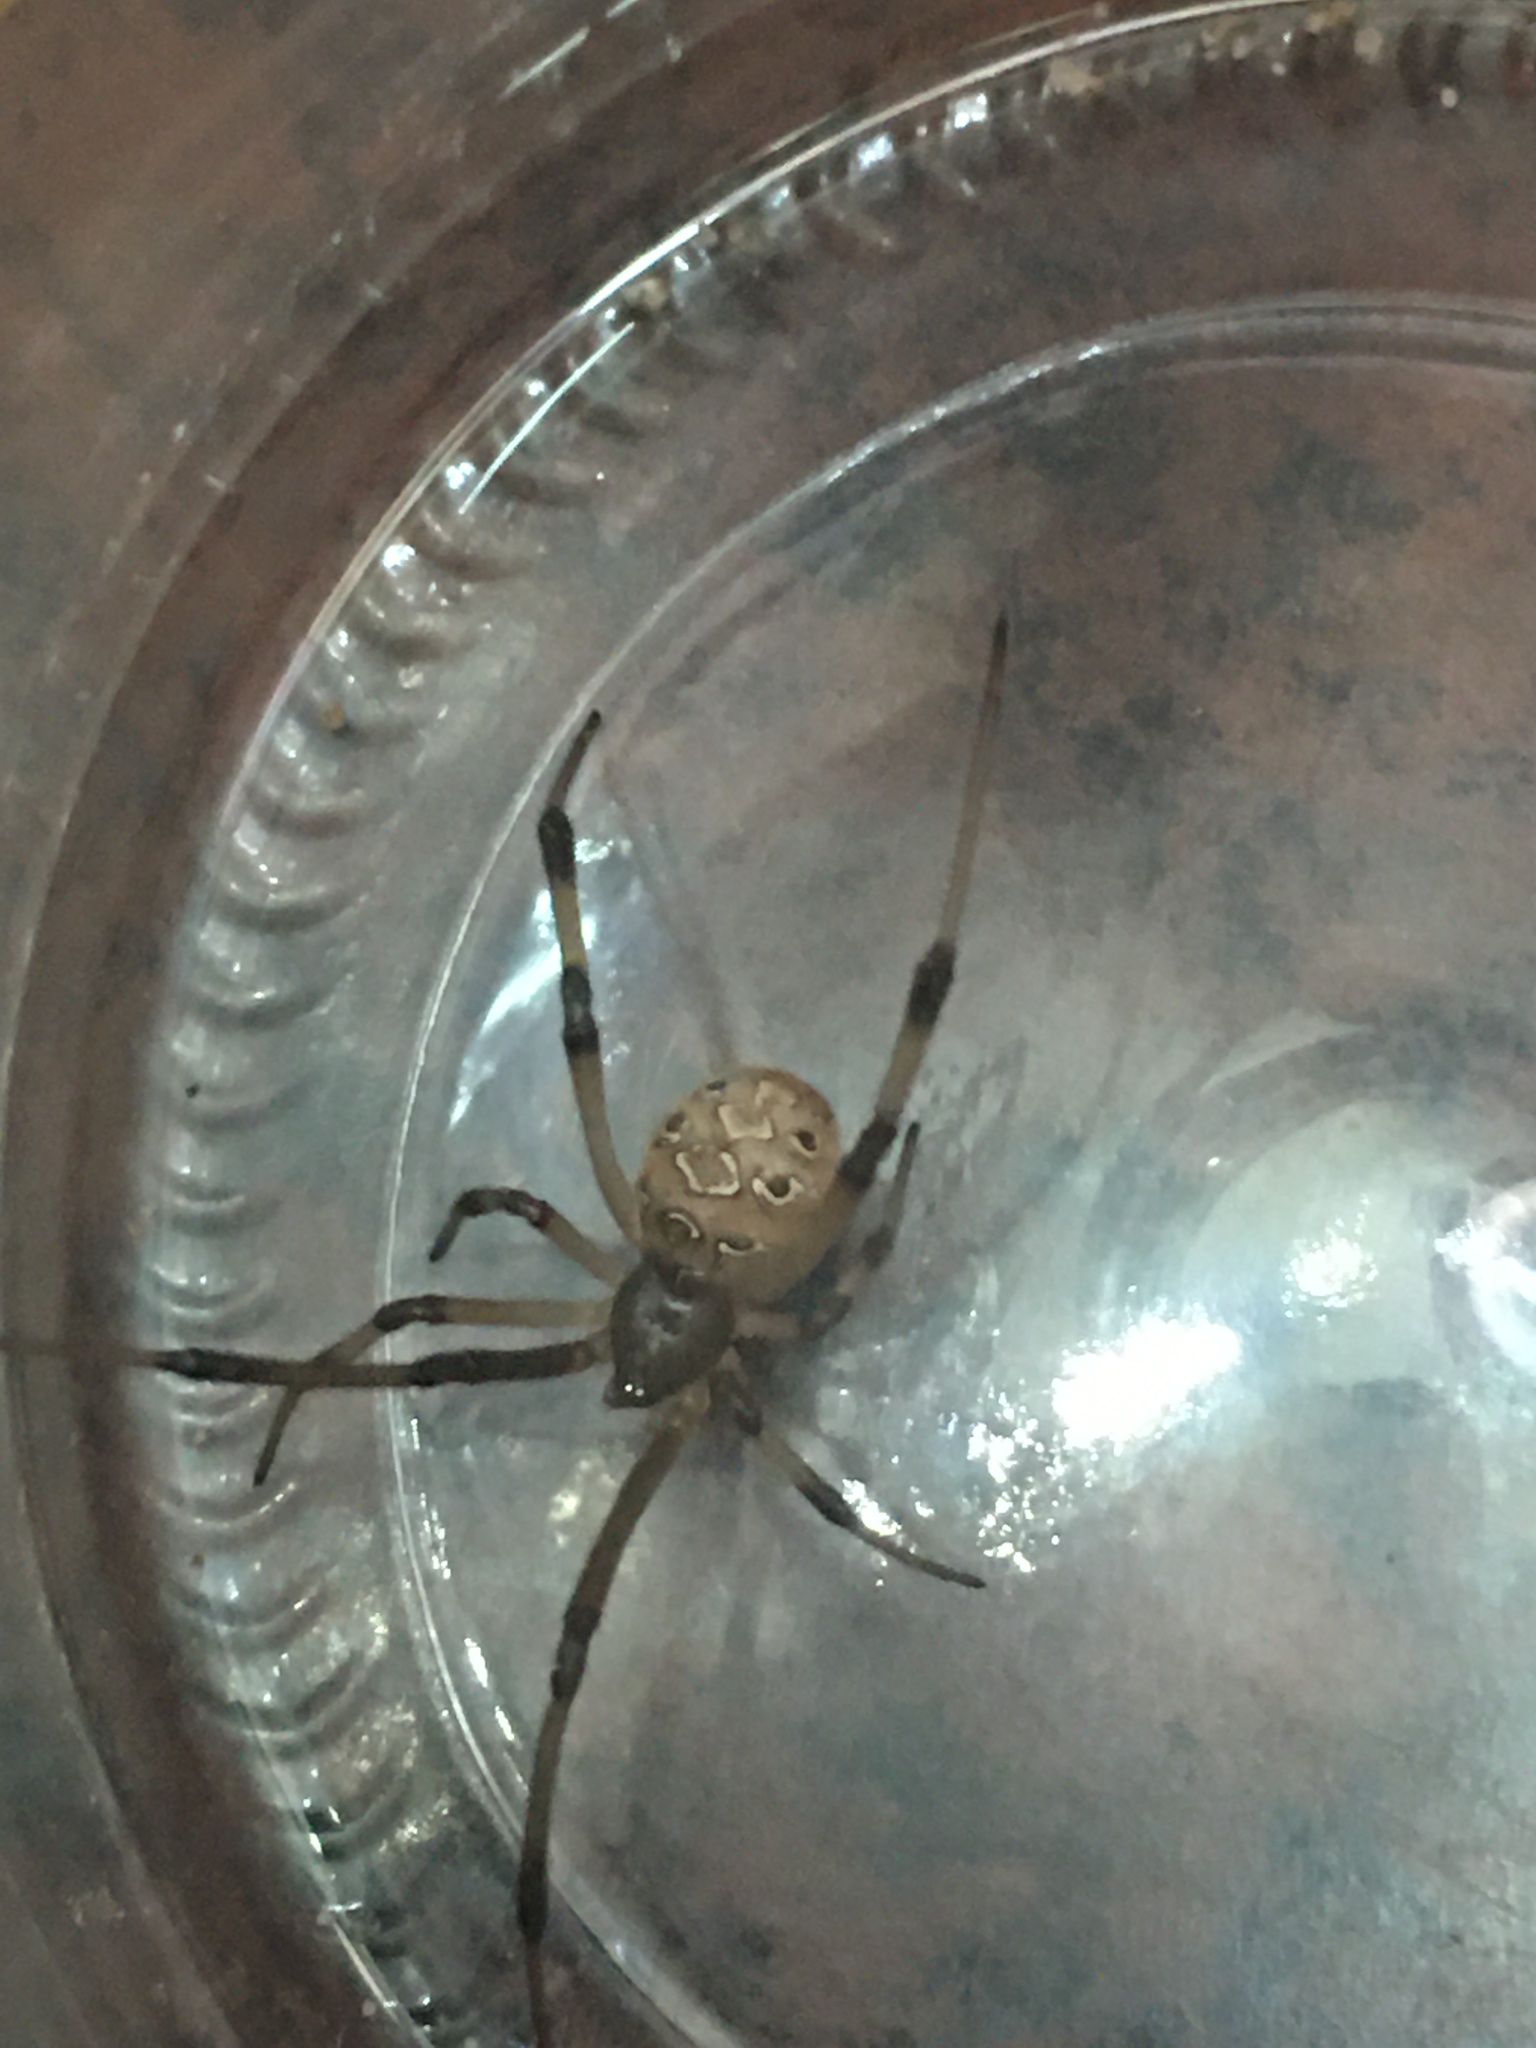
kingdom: Animalia
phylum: Arthropoda
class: Arachnida
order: Araneae
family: Theridiidae
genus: Latrodectus
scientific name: Latrodectus geometricus
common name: Brown widow spider
